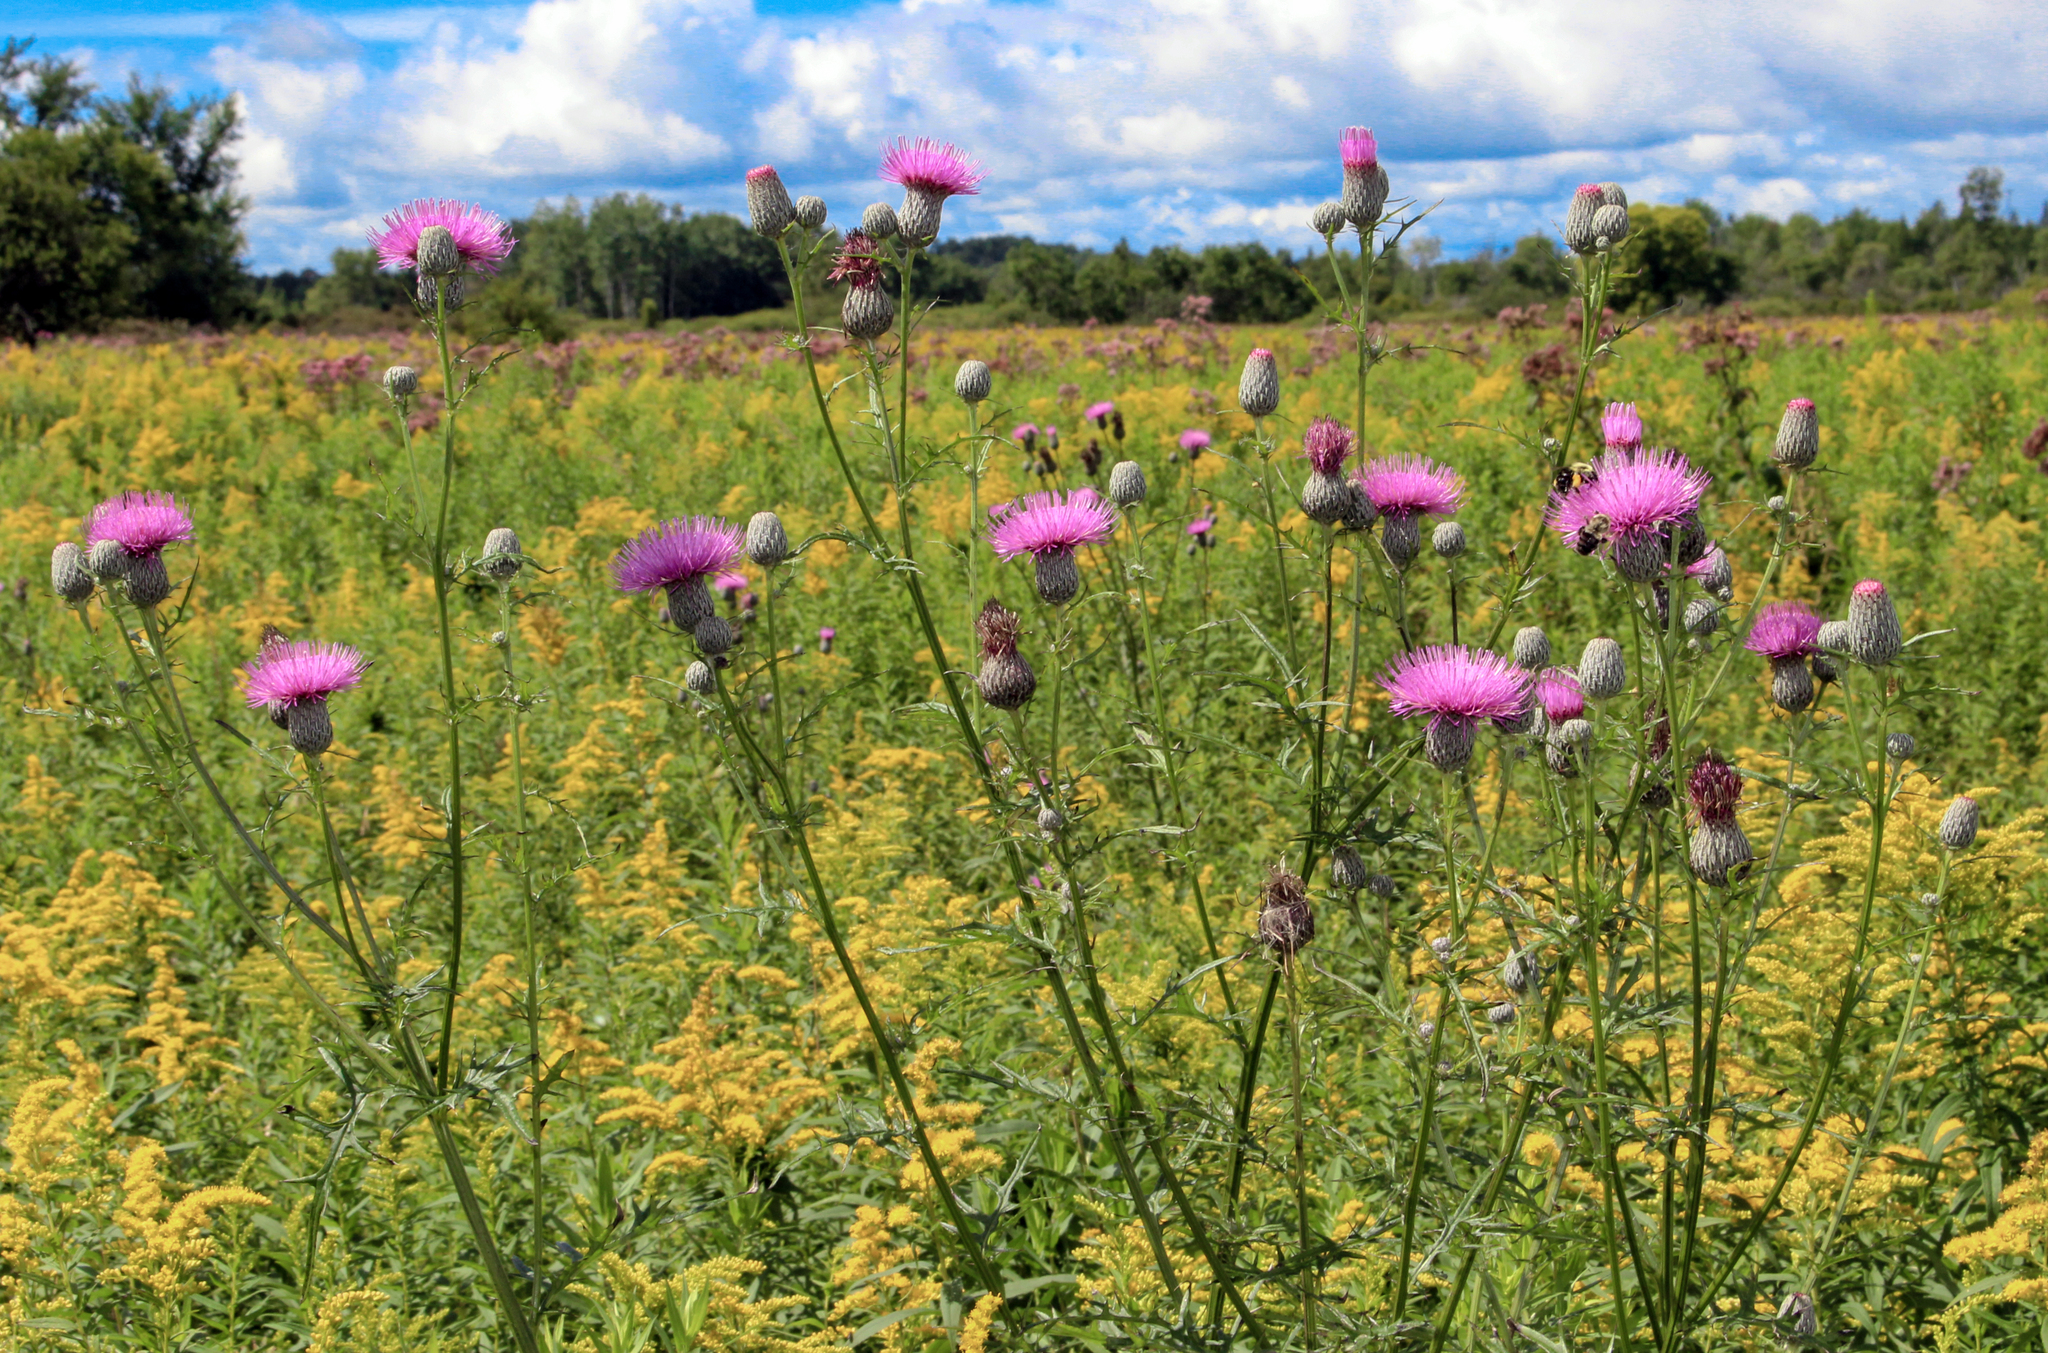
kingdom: Plantae
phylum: Tracheophyta
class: Magnoliopsida
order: Asterales
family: Asteraceae
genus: Cirsium
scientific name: Cirsium muticum
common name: Dunce-nettle
